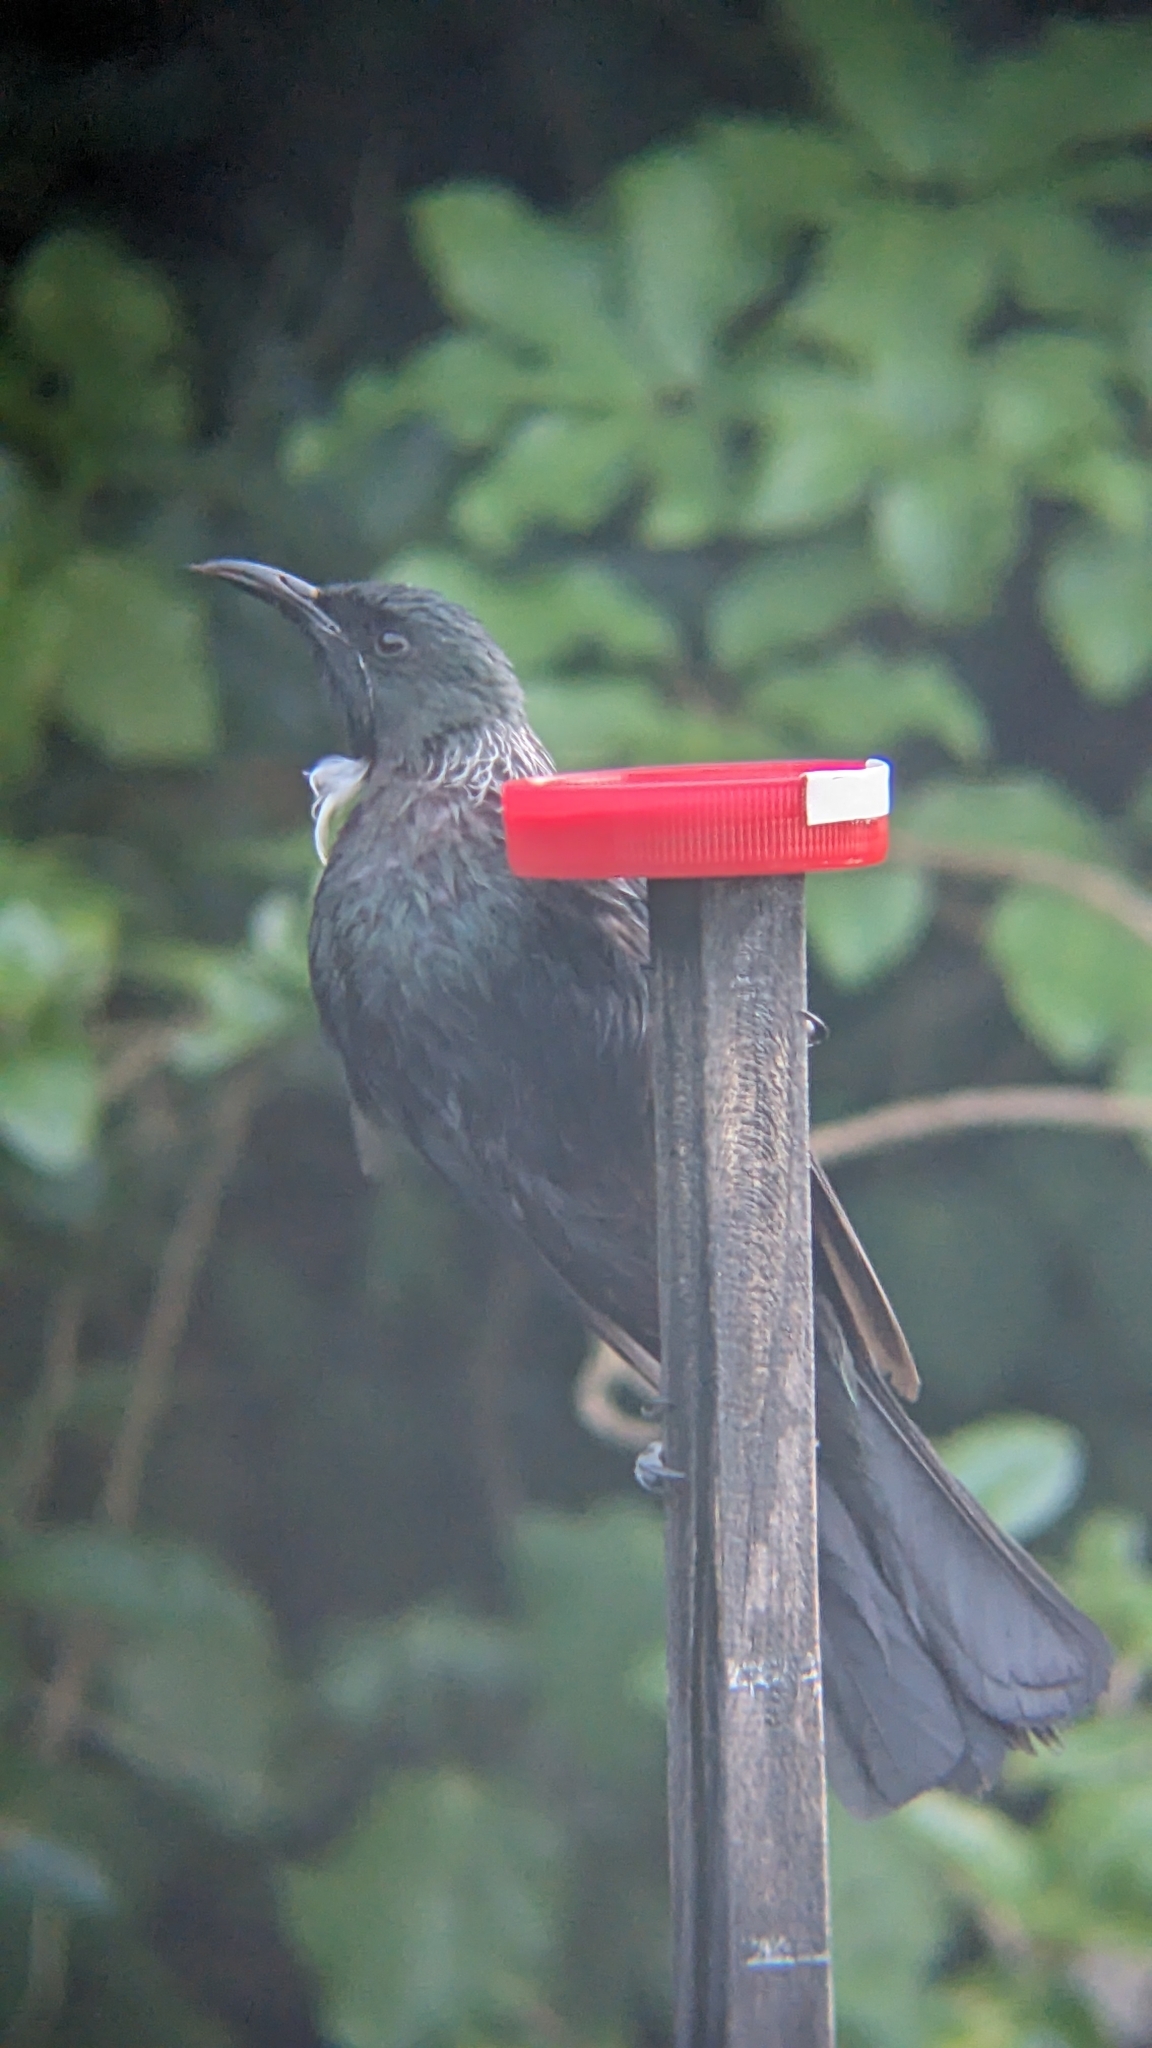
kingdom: Animalia
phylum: Chordata
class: Aves
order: Passeriformes
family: Meliphagidae
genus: Prosthemadera
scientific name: Prosthemadera novaeseelandiae
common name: Tui
